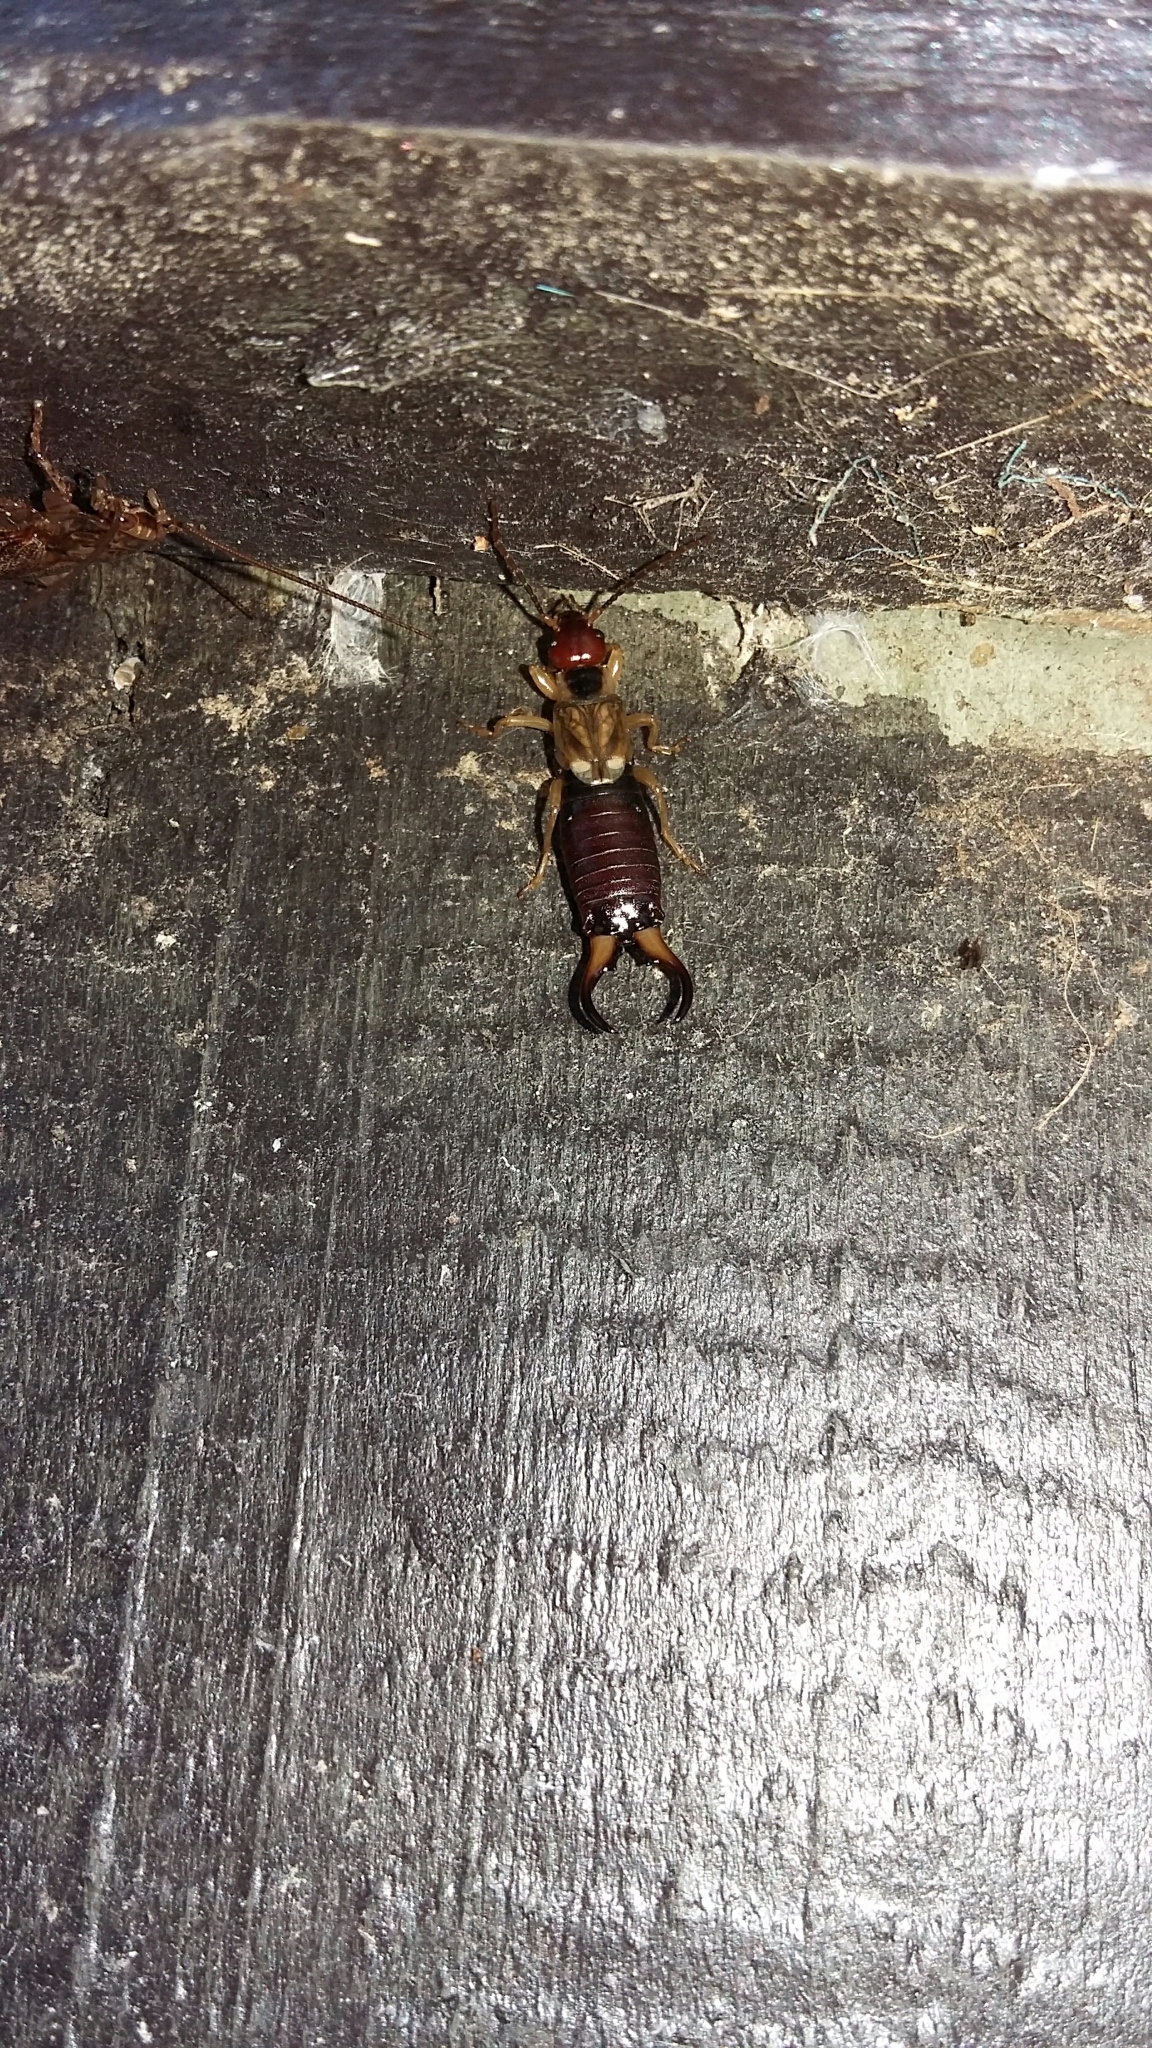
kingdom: Animalia
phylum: Arthropoda
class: Insecta
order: Dermaptera
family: Forficulidae
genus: Forficula
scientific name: Forficula
